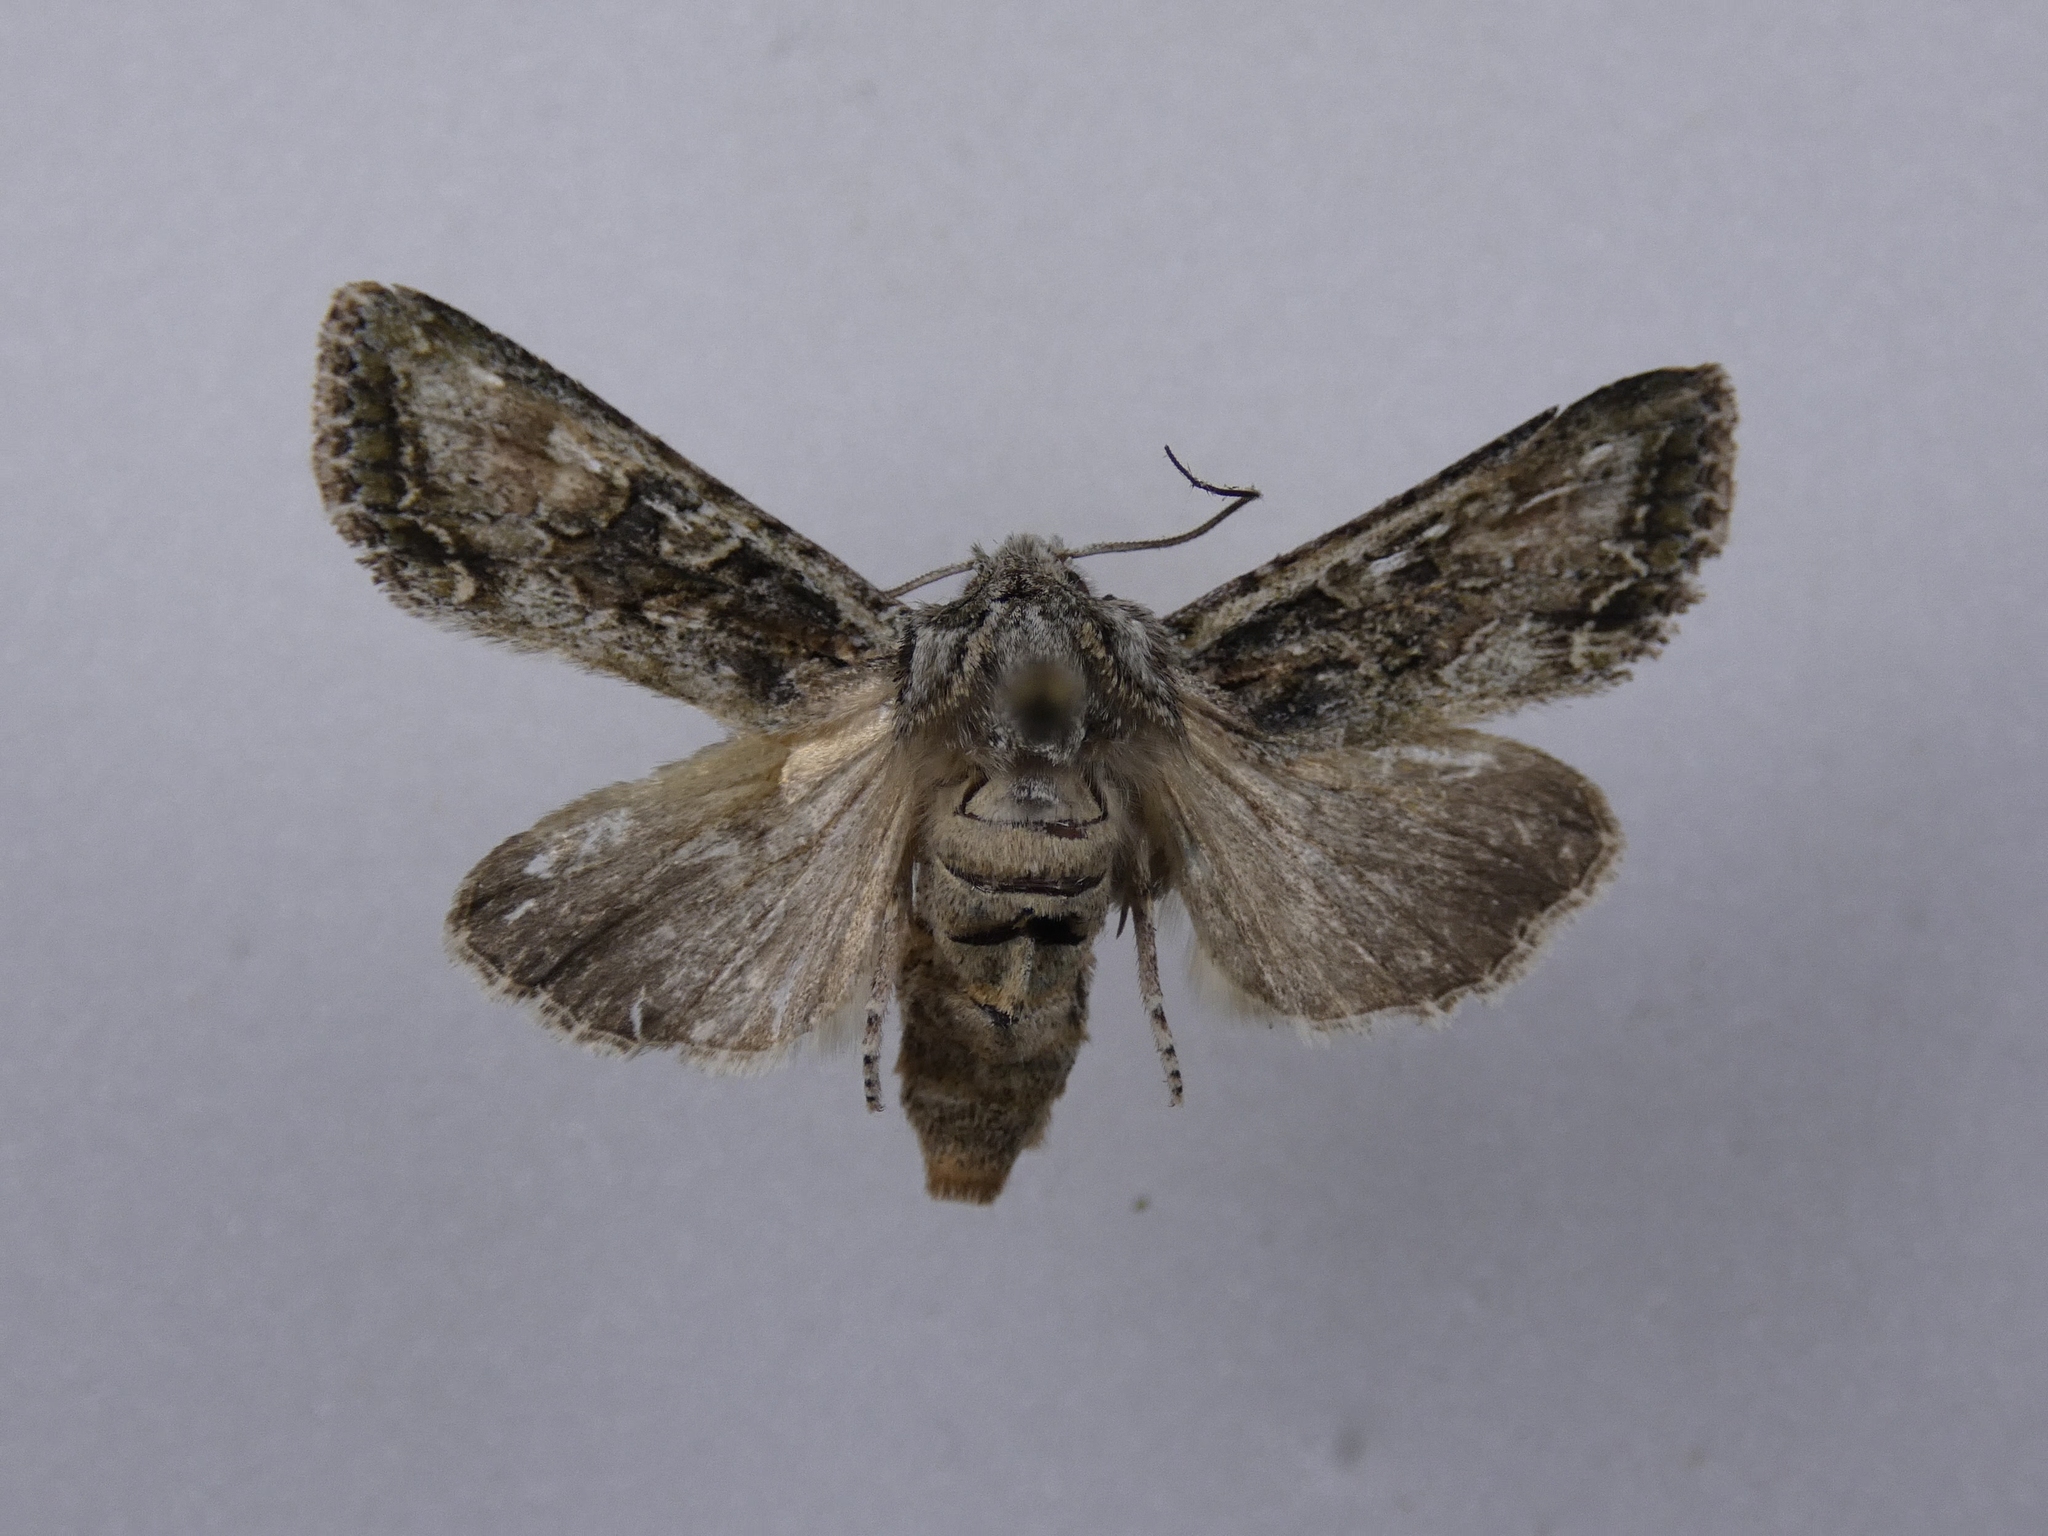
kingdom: Animalia
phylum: Arthropoda
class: Insecta
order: Lepidoptera
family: Noctuidae
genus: Ichneutica
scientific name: Ichneutica mutans
